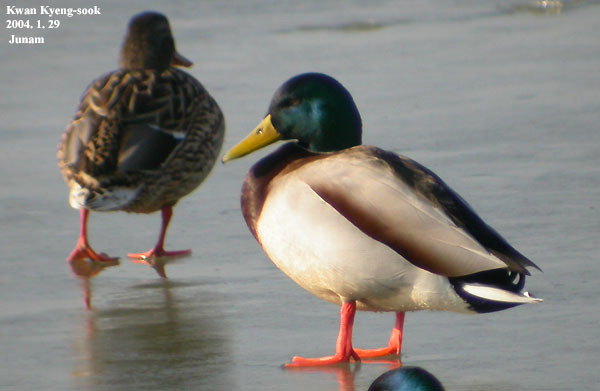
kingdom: Animalia
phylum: Chordata
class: Aves
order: Anseriformes
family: Anatidae
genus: Anas
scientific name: Anas platyrhynchos
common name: Mallard
